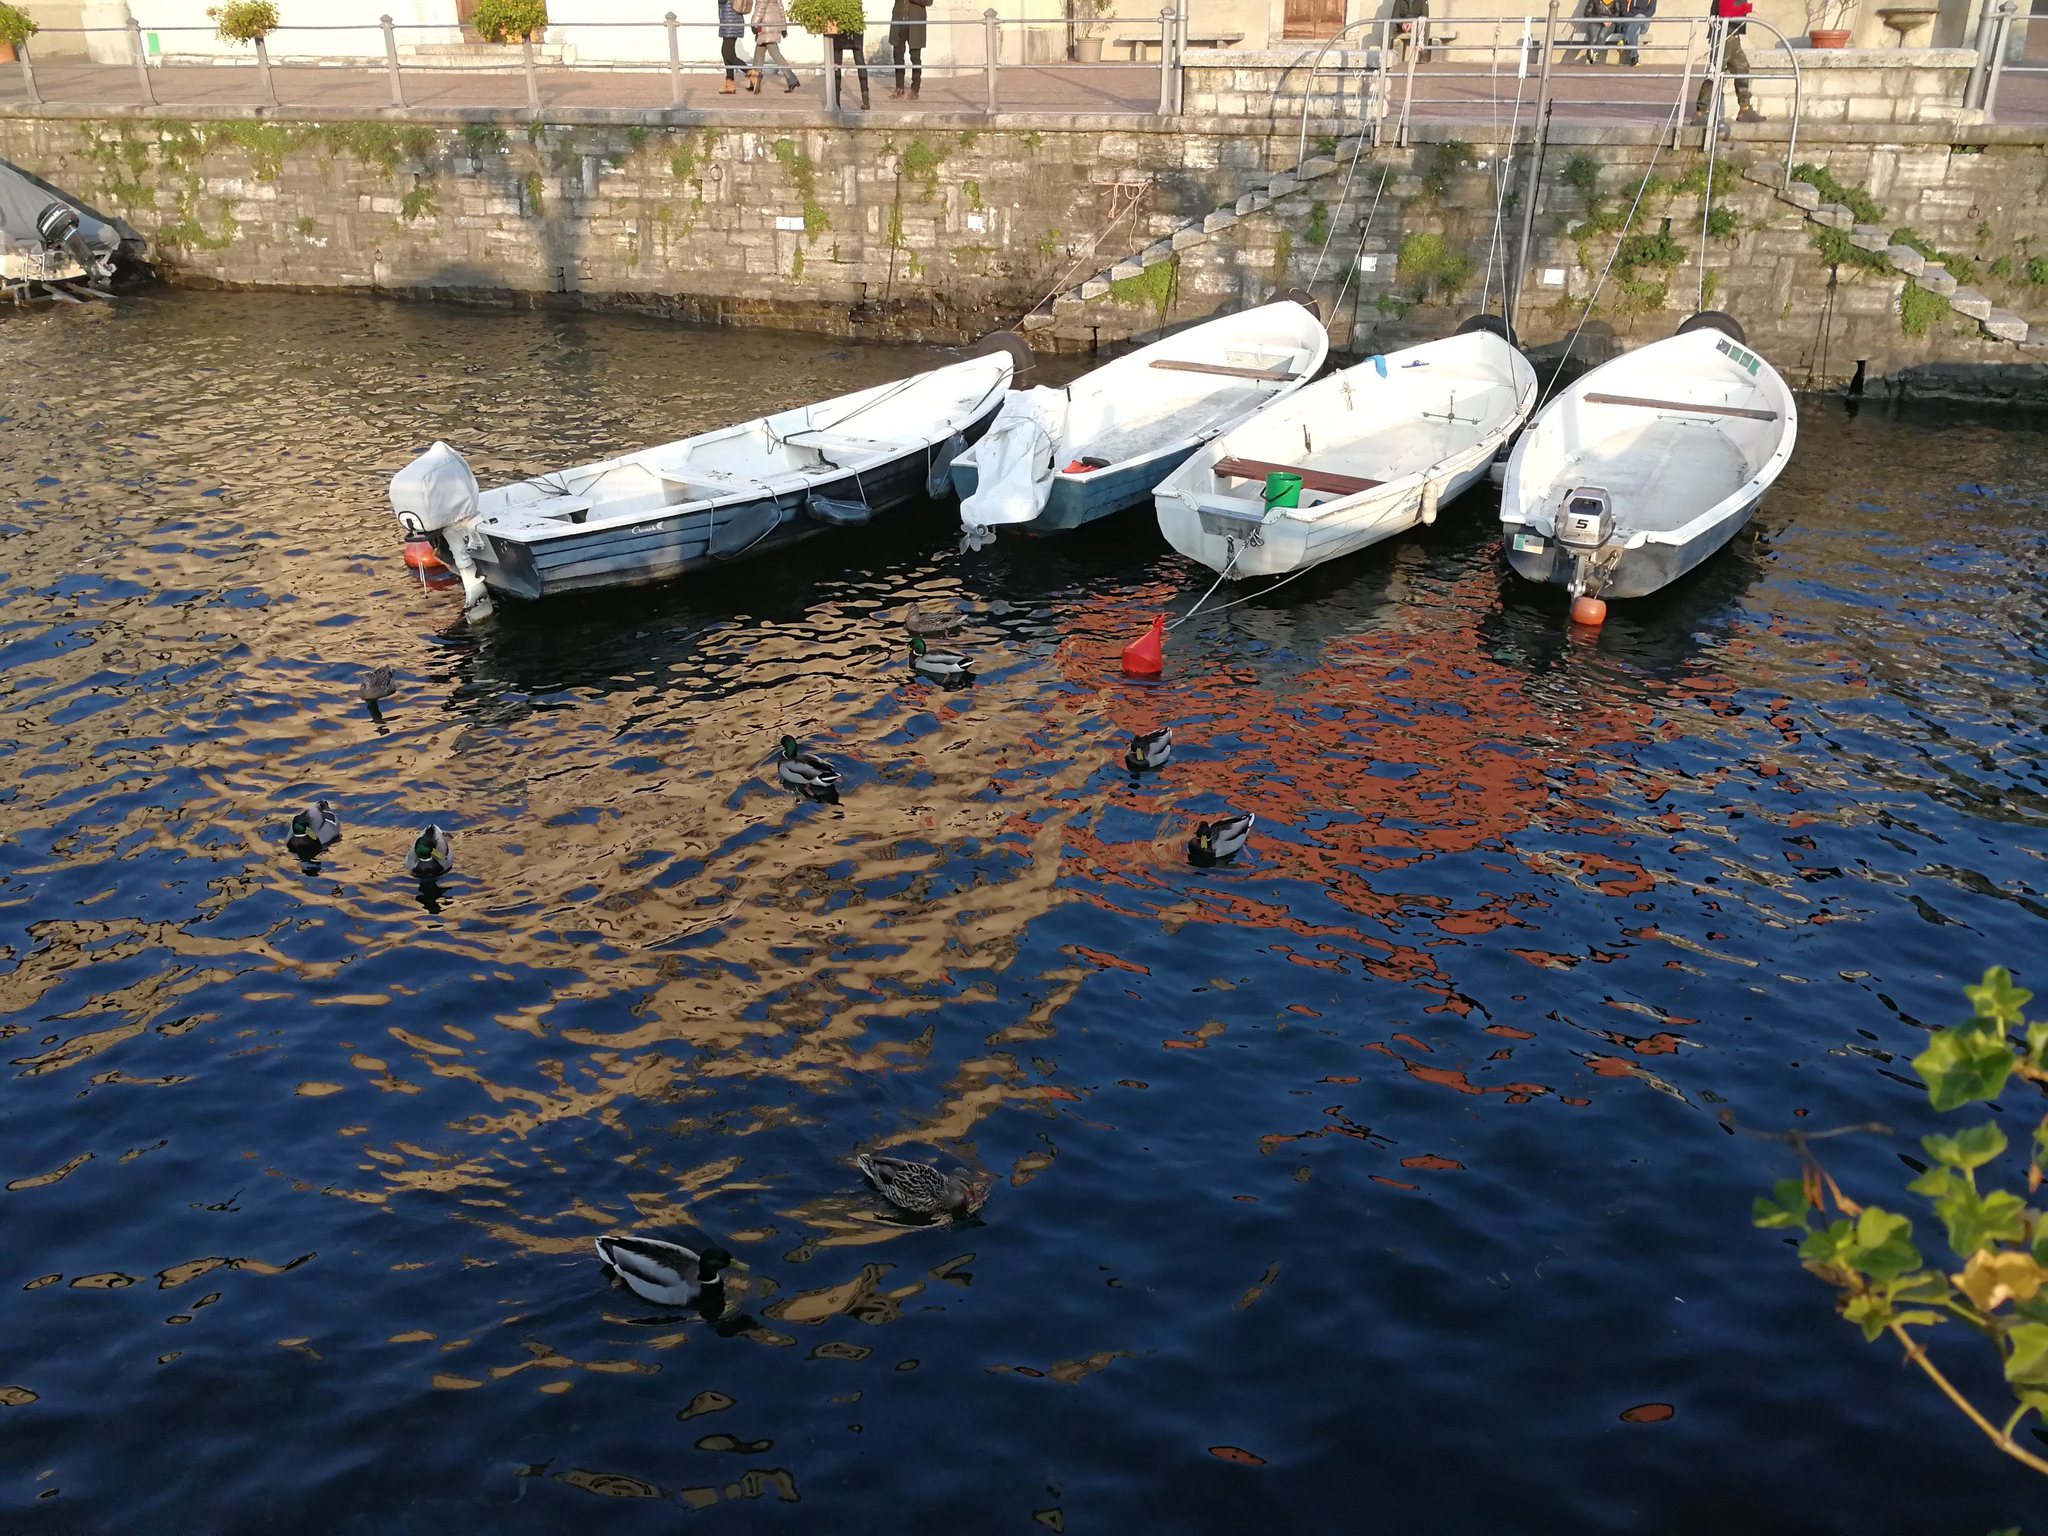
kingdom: Animalia
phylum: Chordata
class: Aves
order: Anseriformes
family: Anatidae
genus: Anas
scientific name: Anas platyrhynchos
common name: Mallard
